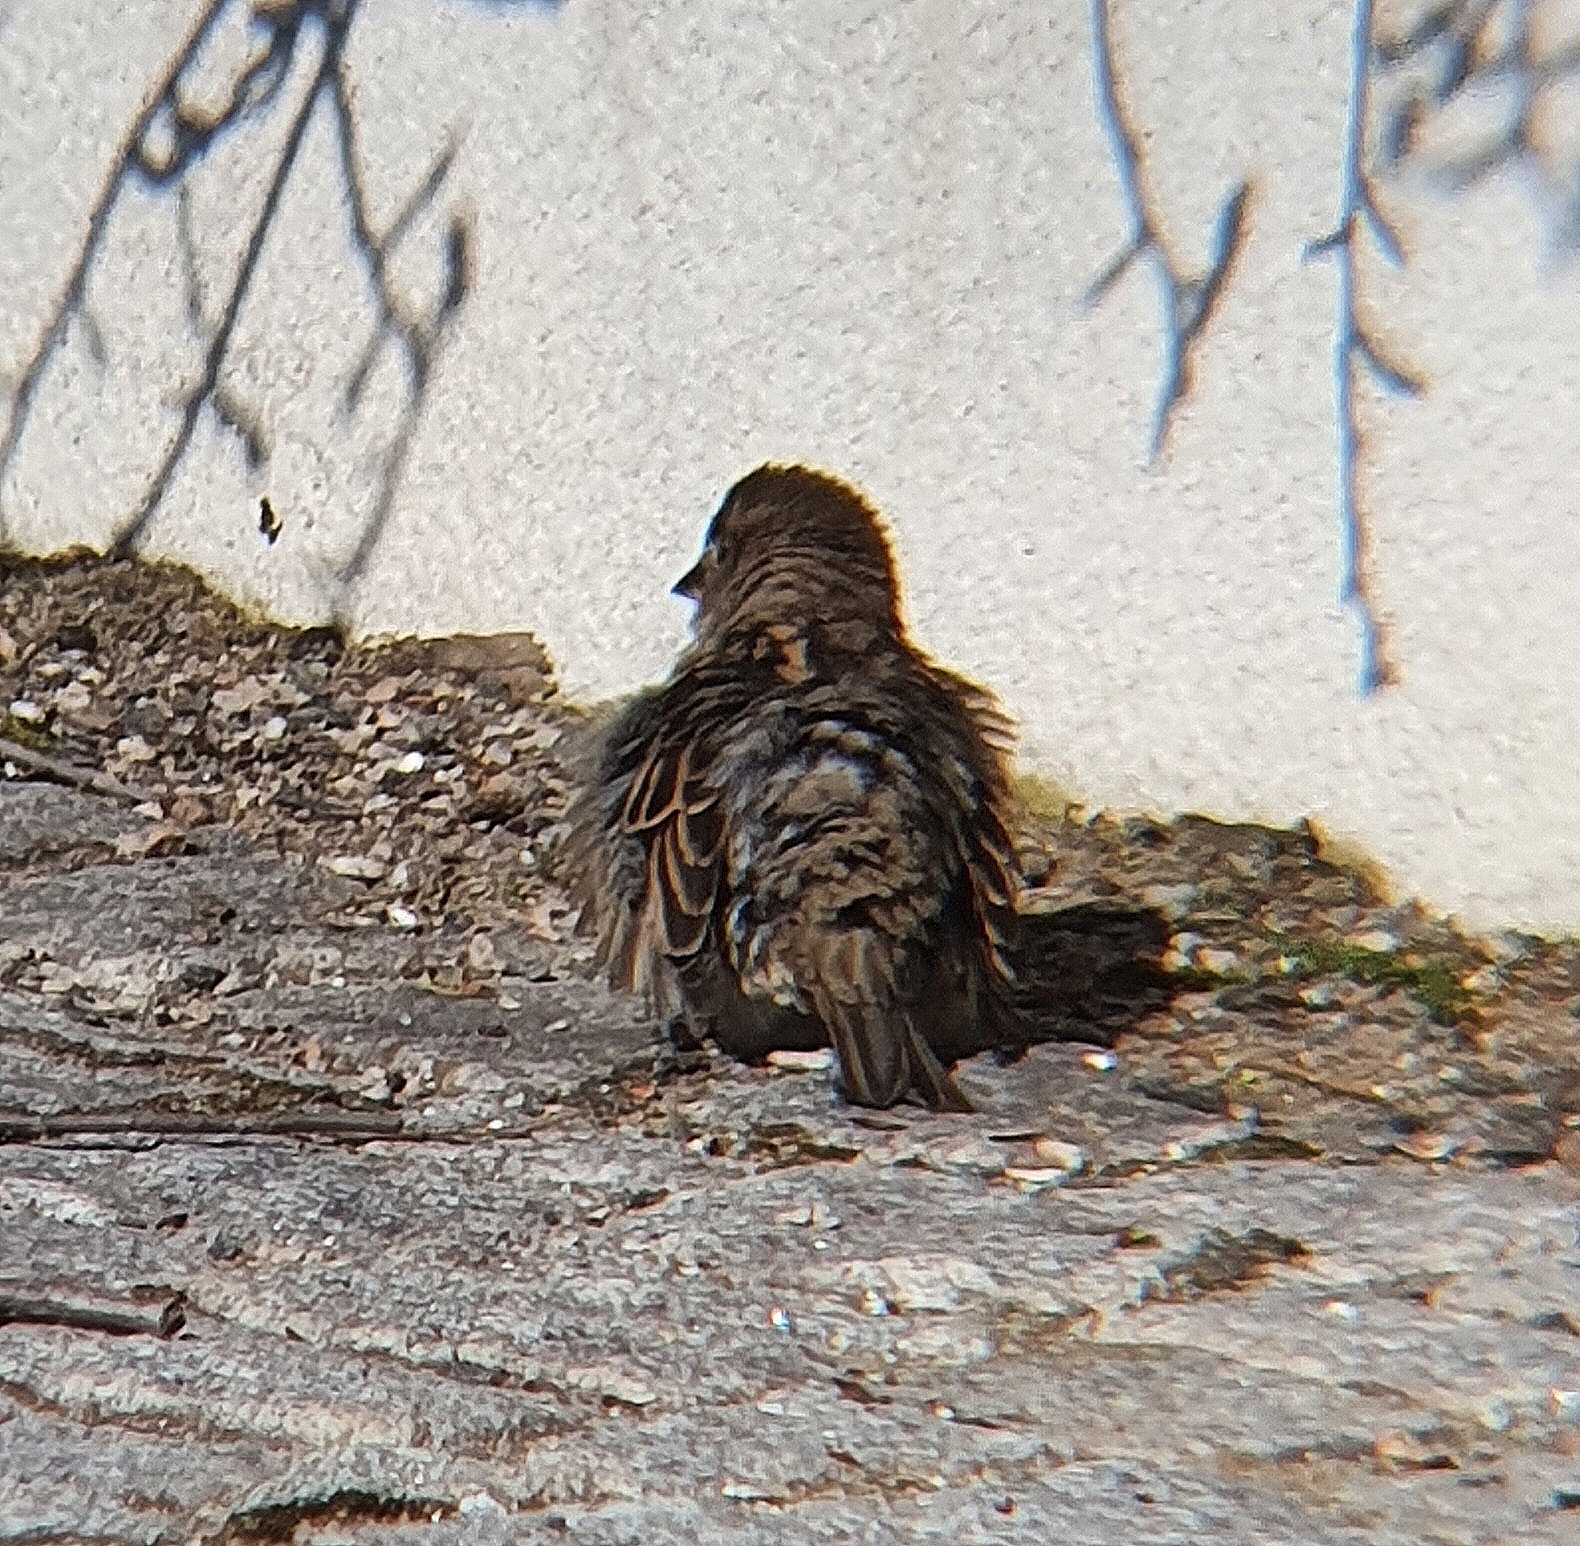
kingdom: Animalia
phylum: Chordata
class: Aves
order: Passeriformes
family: Passeridae
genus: Passer
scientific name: Passer domesticus
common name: House sparrow
